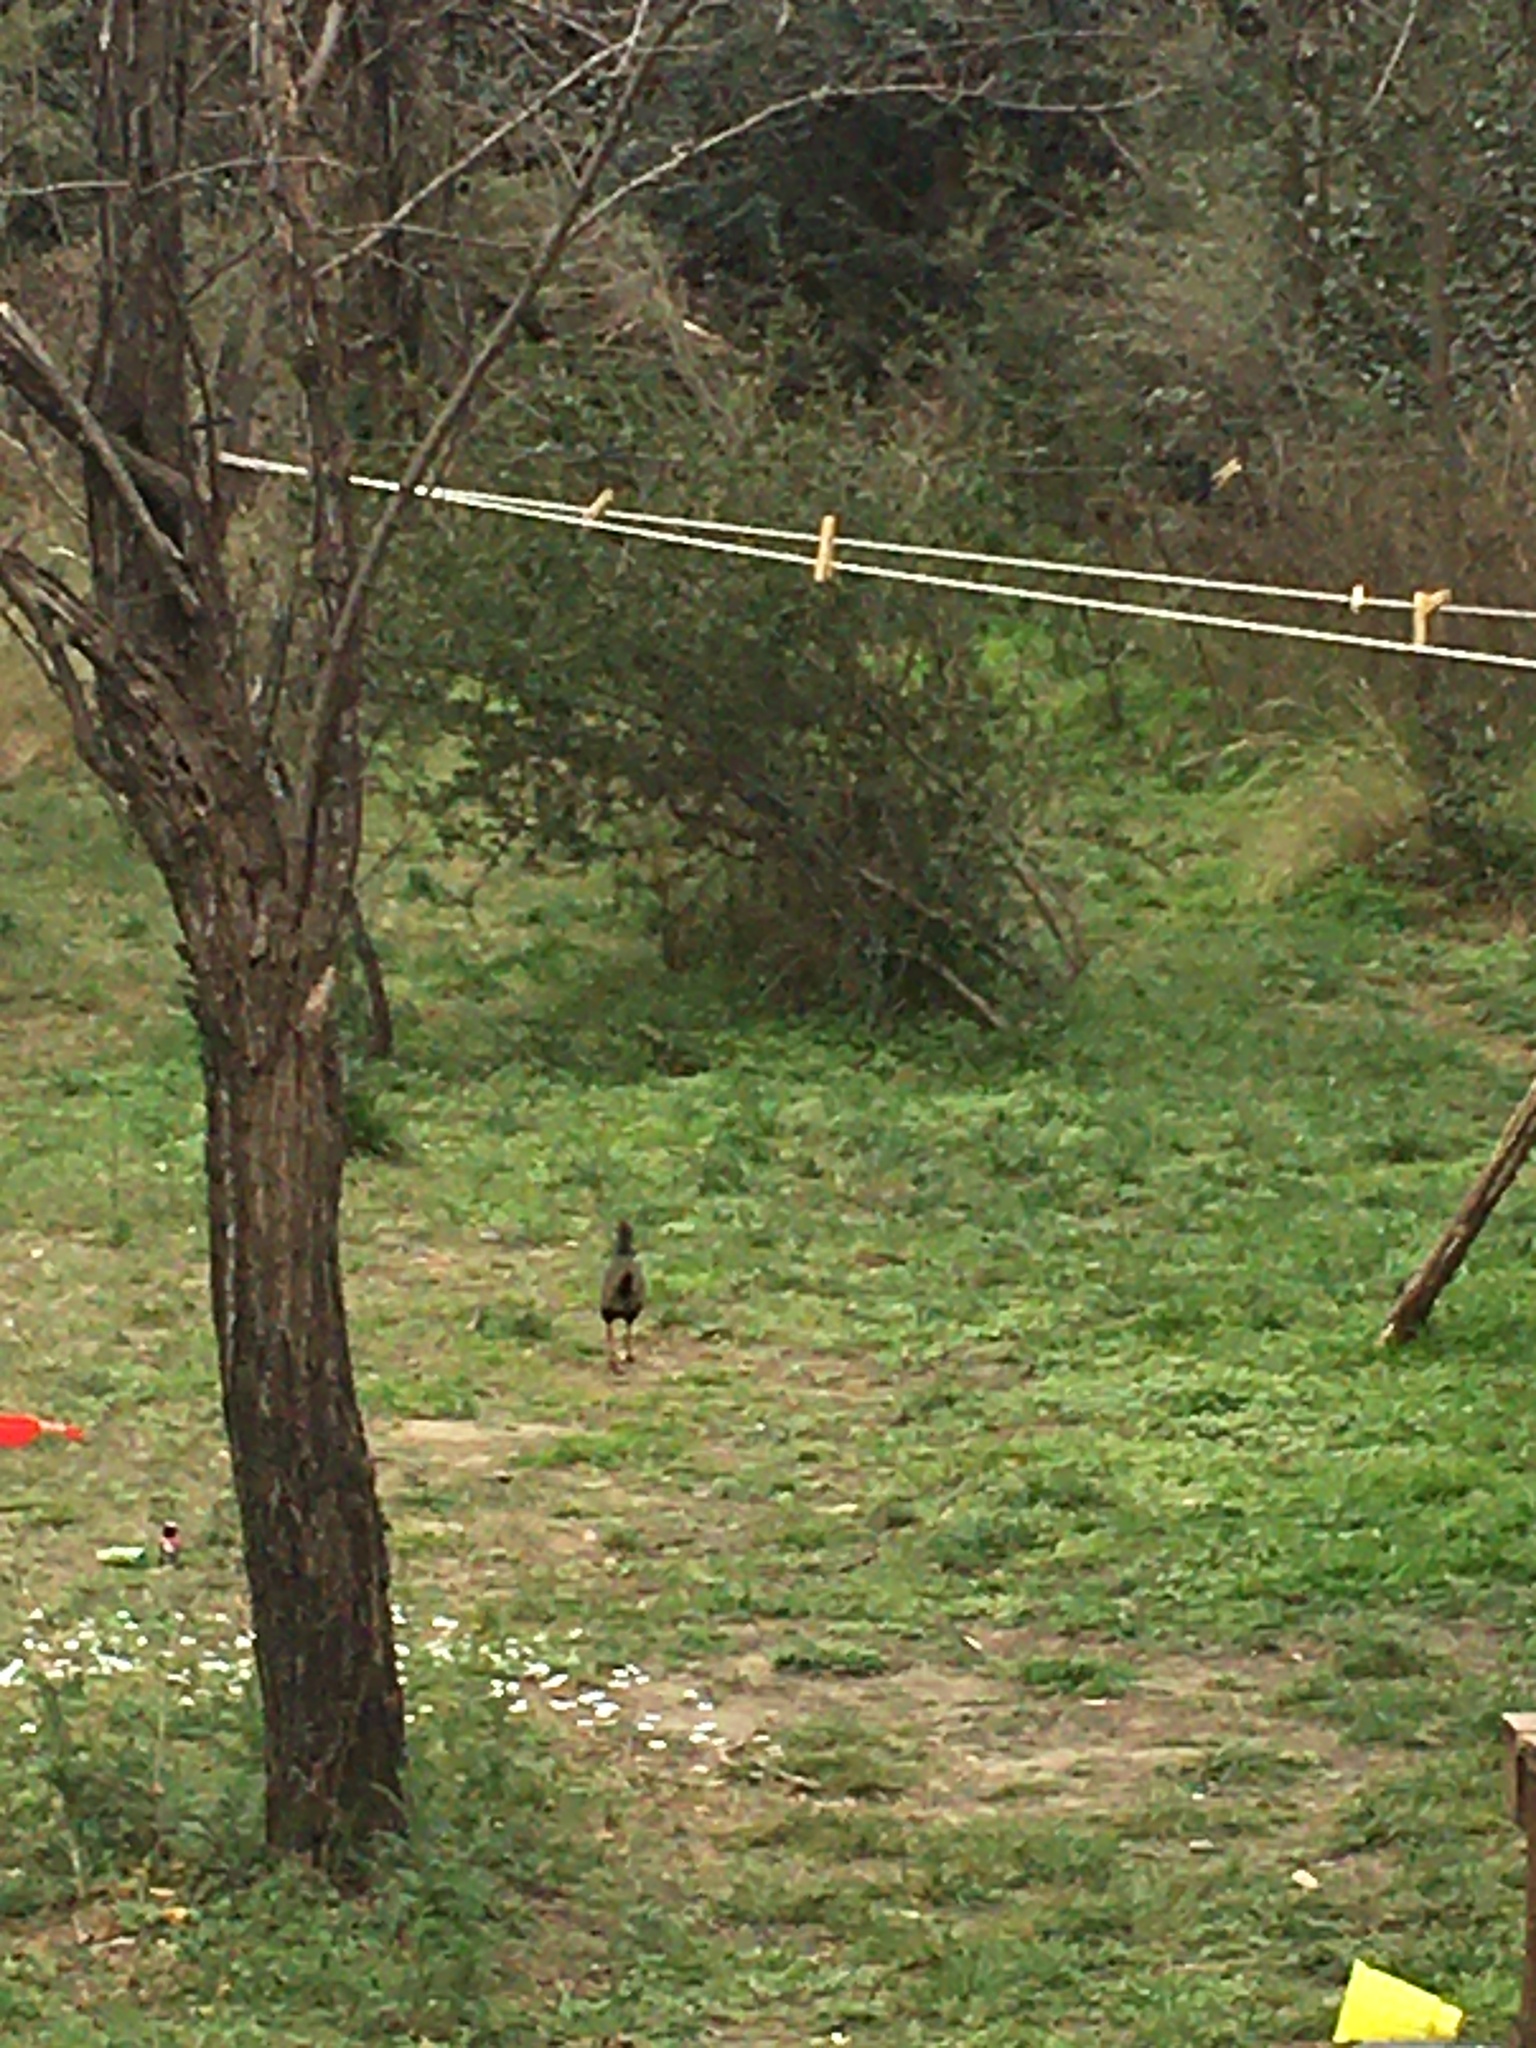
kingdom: Animalia
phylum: Chordata
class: Aves
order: Gruiformes
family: Rallidae
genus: Aramides
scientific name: Aramides cajanea
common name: Gray-necked wood-rail
